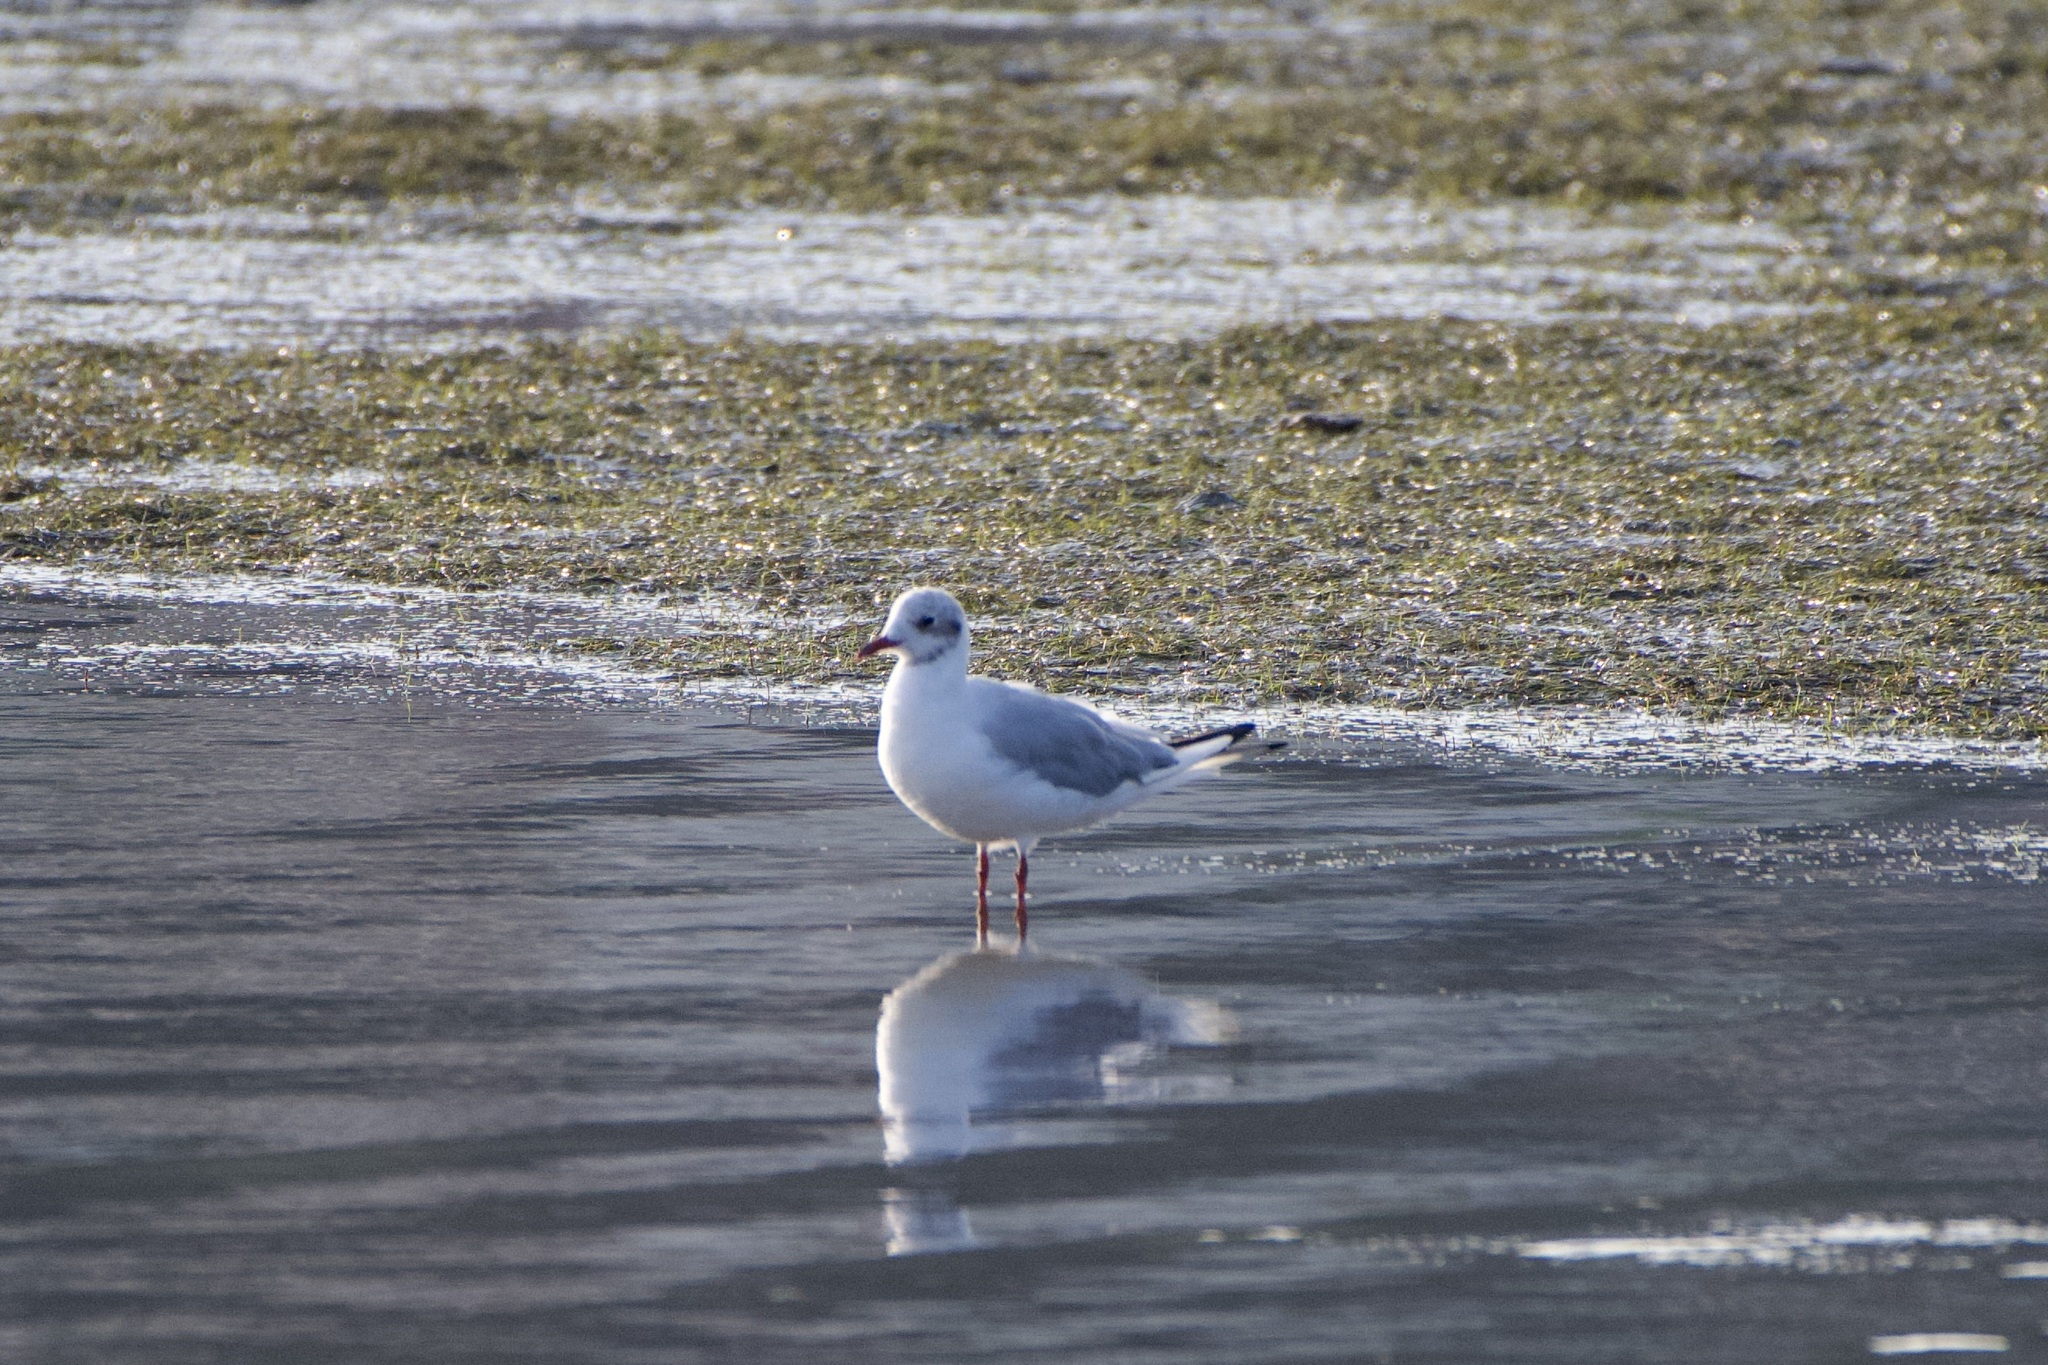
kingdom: Animalia
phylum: Chordata
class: Aves
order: Charadriiformes
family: Laridae
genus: Chroicocephalus
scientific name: Chroicocephalus ridibundus
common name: Black-headed gull
